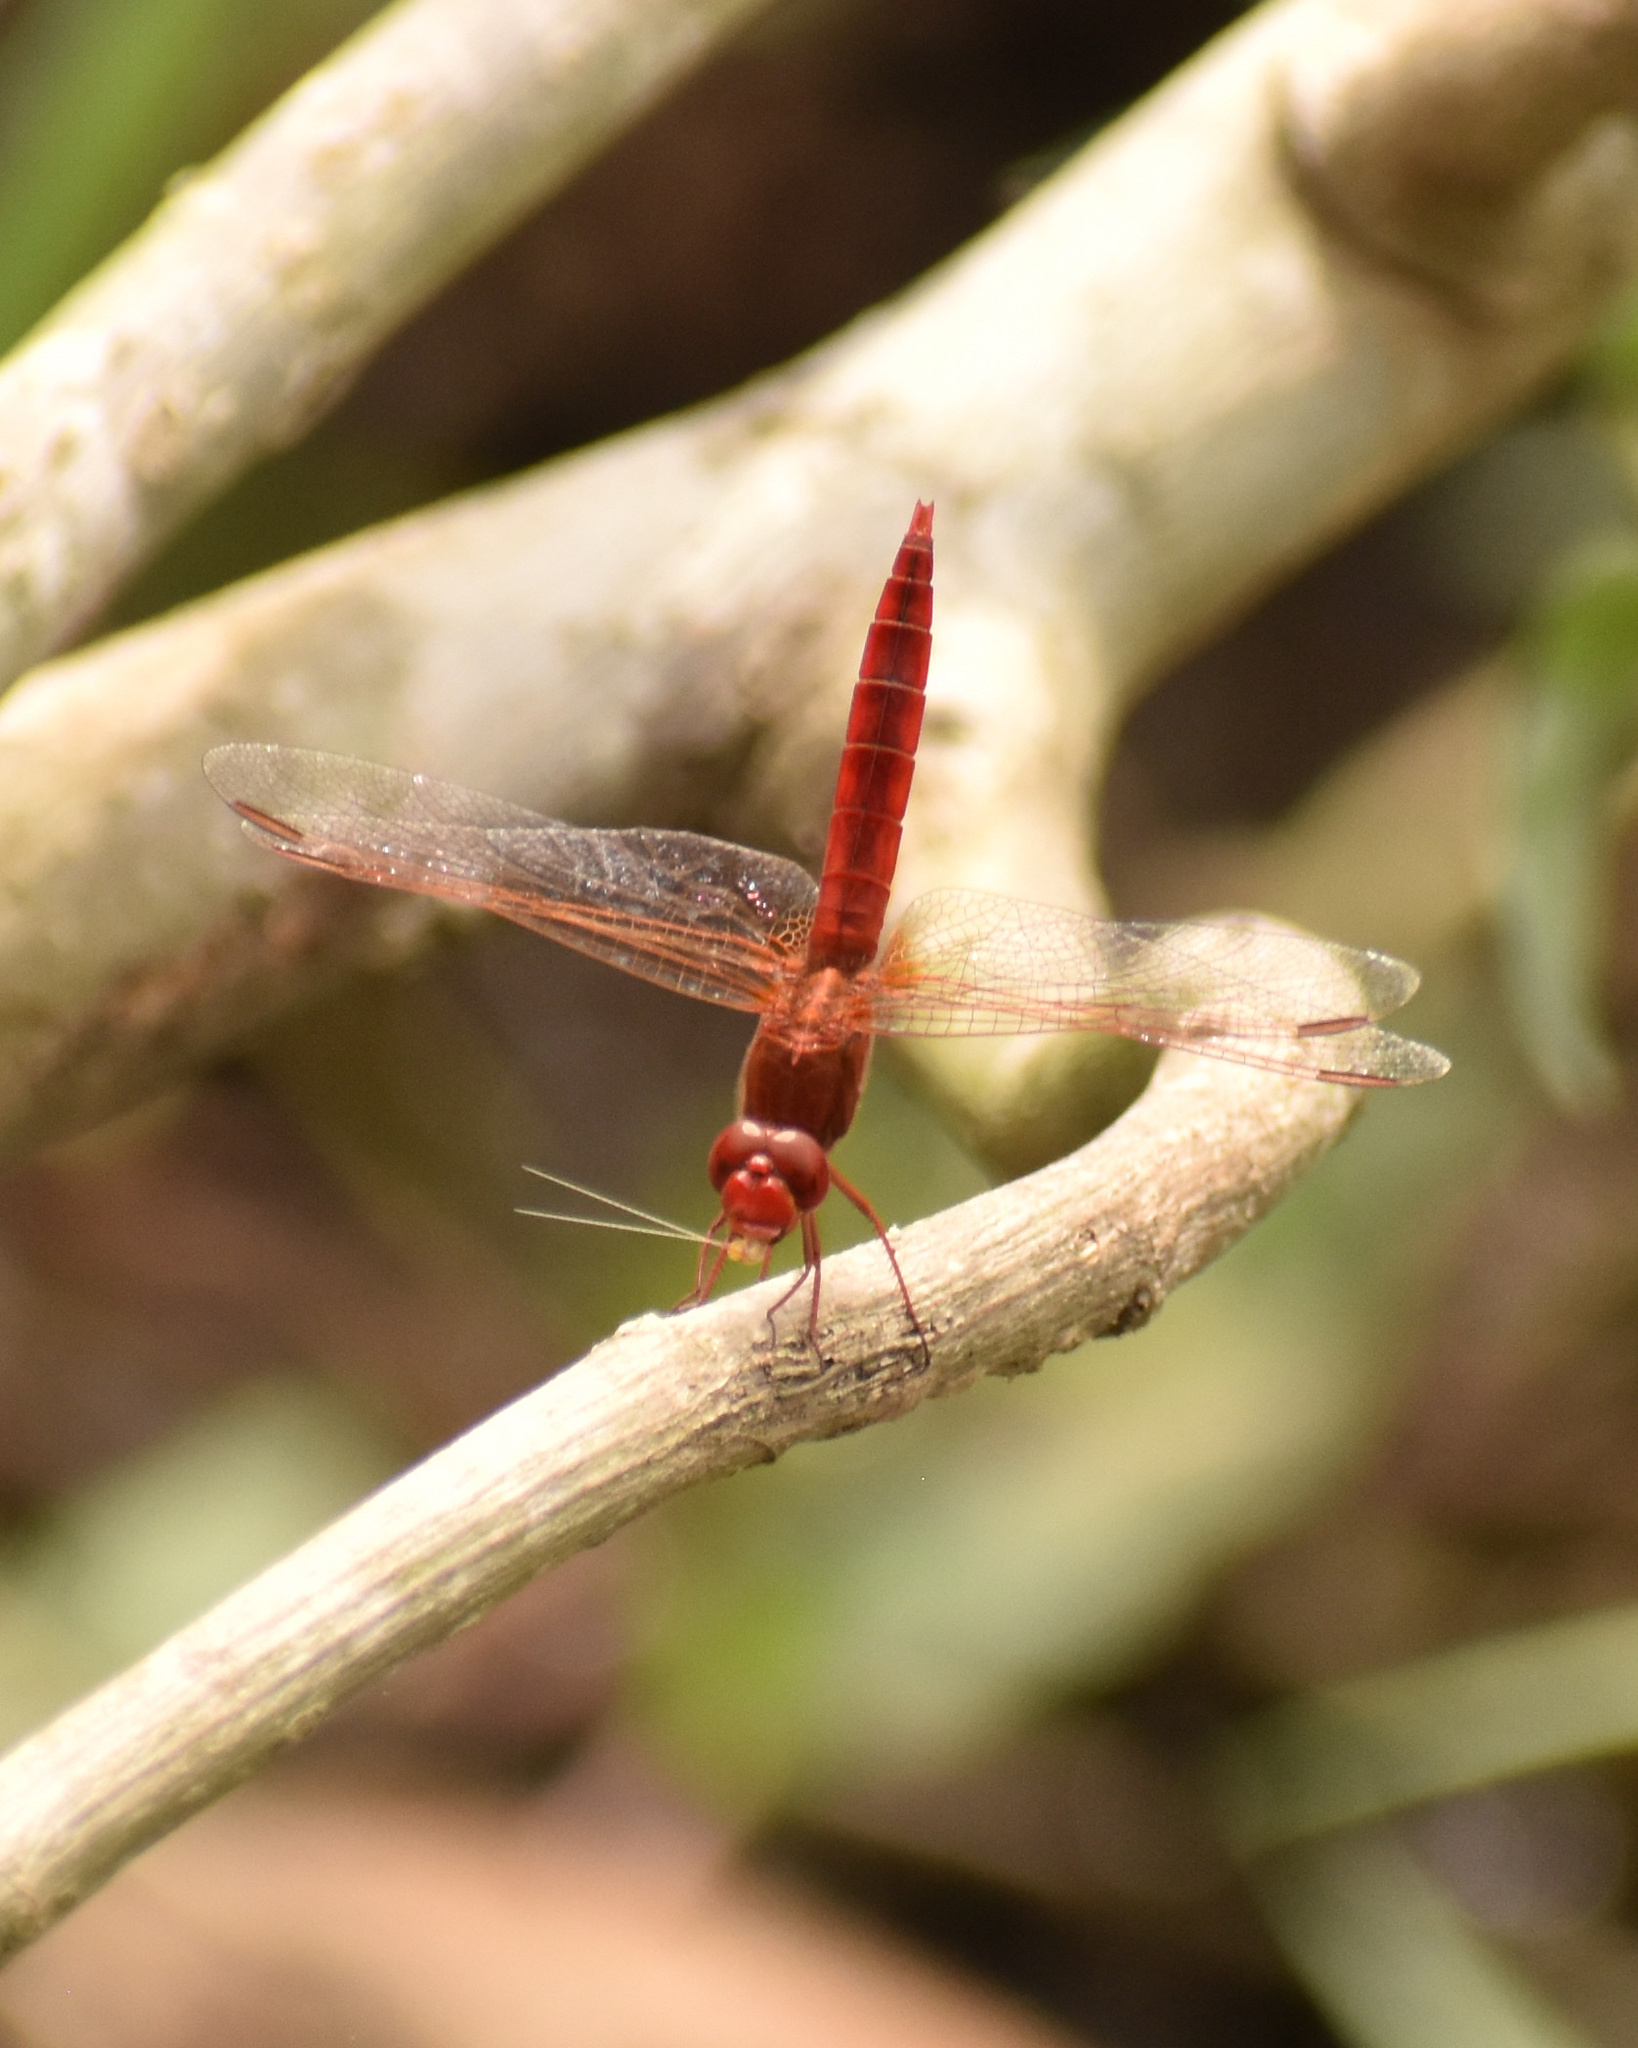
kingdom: Animalia
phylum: Arthropoda
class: Insecta
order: Odonata
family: Libellulidae
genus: Crocothemis
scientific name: Crocothemis erythraea
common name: Scarlet dragonfly
